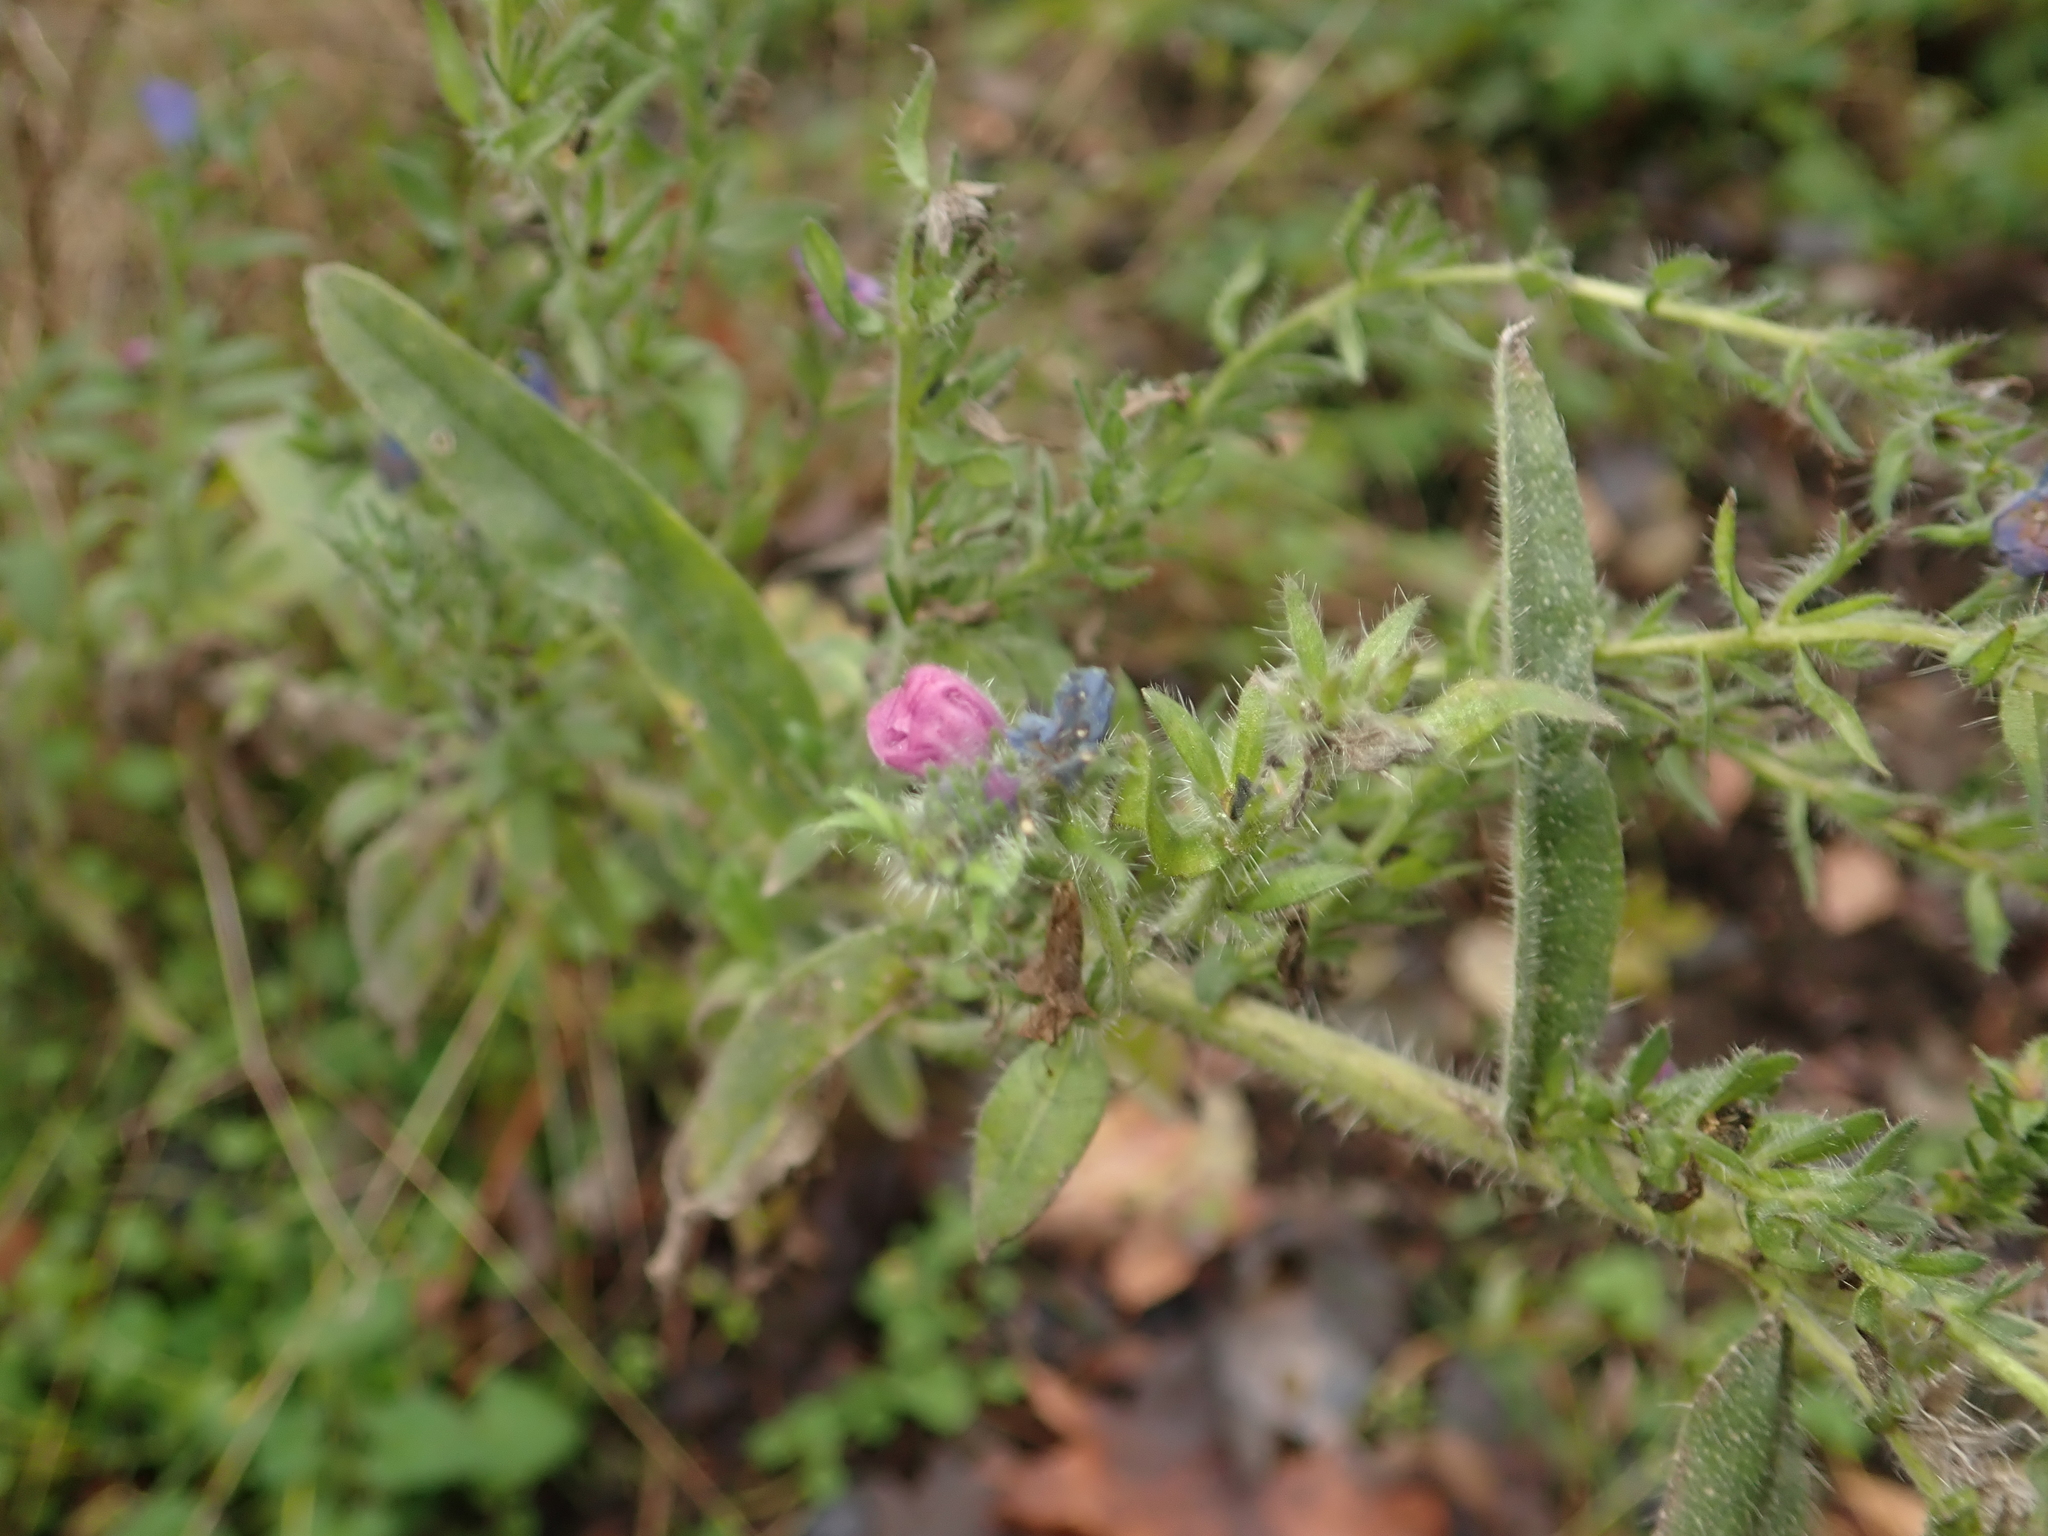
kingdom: Plantae
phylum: Tracheophyta
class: Magnoliopsida
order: Boraginales
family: Boraginaceae
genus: Echium
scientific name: Echium vulgare
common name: Common viper's bugloss
